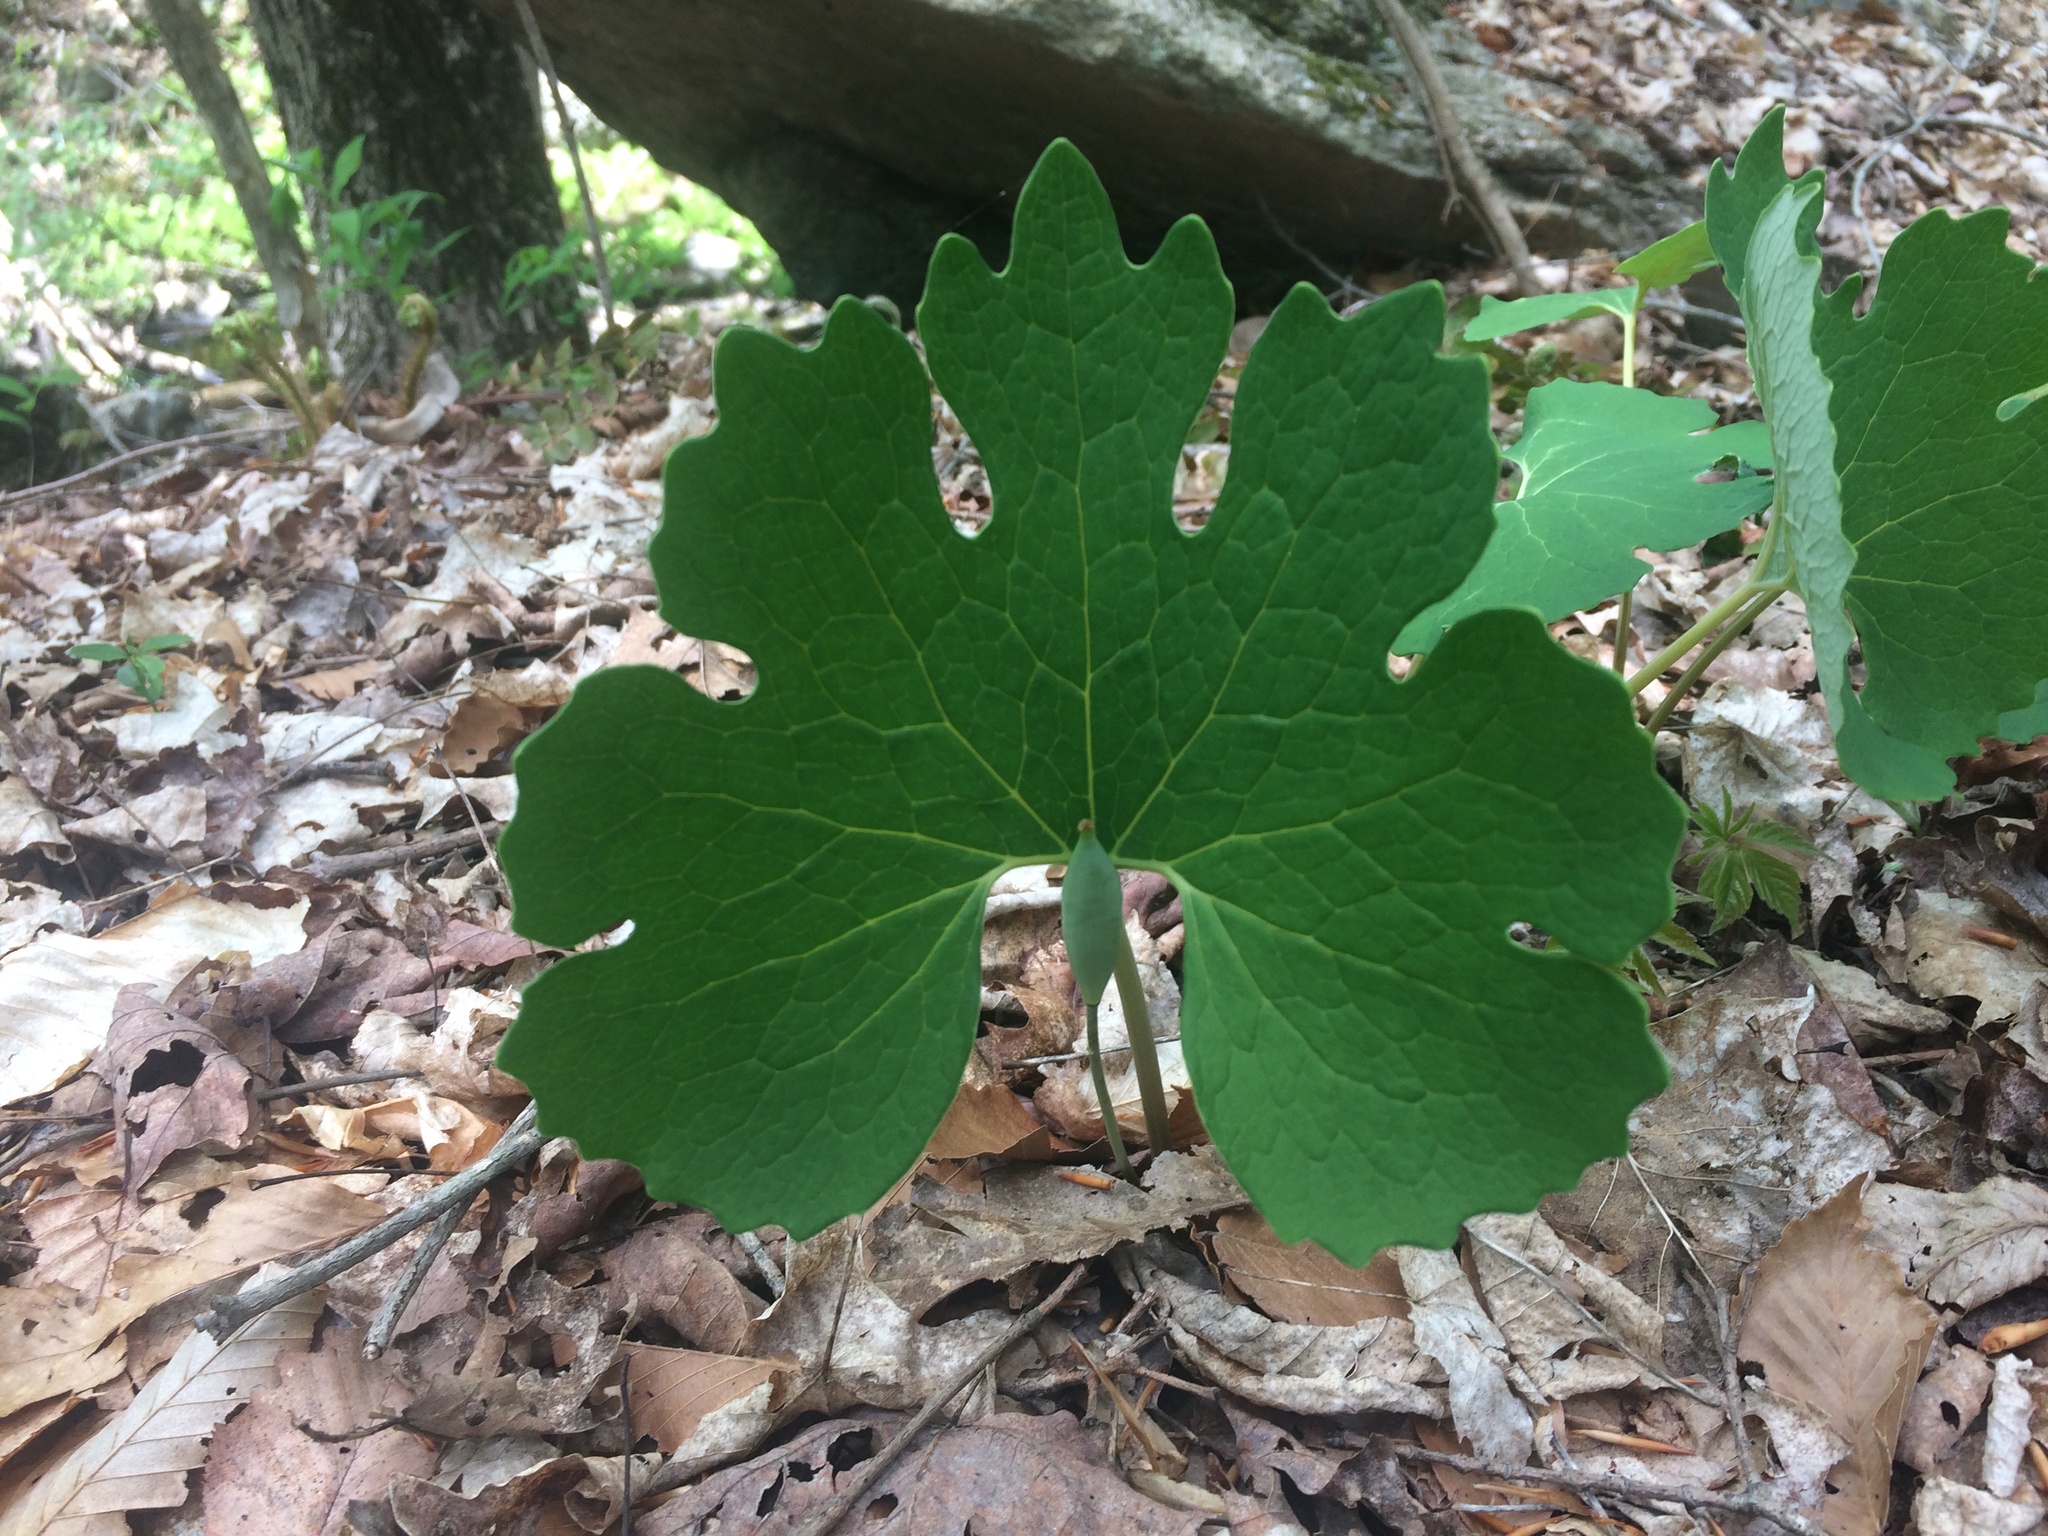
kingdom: Plantae
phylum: Tracheophyta
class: Magnoliopsida
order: Ranunculales
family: Papaveraceae
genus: Sanguinaria
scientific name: Sanguinaria canadensis
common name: Bloodroot
